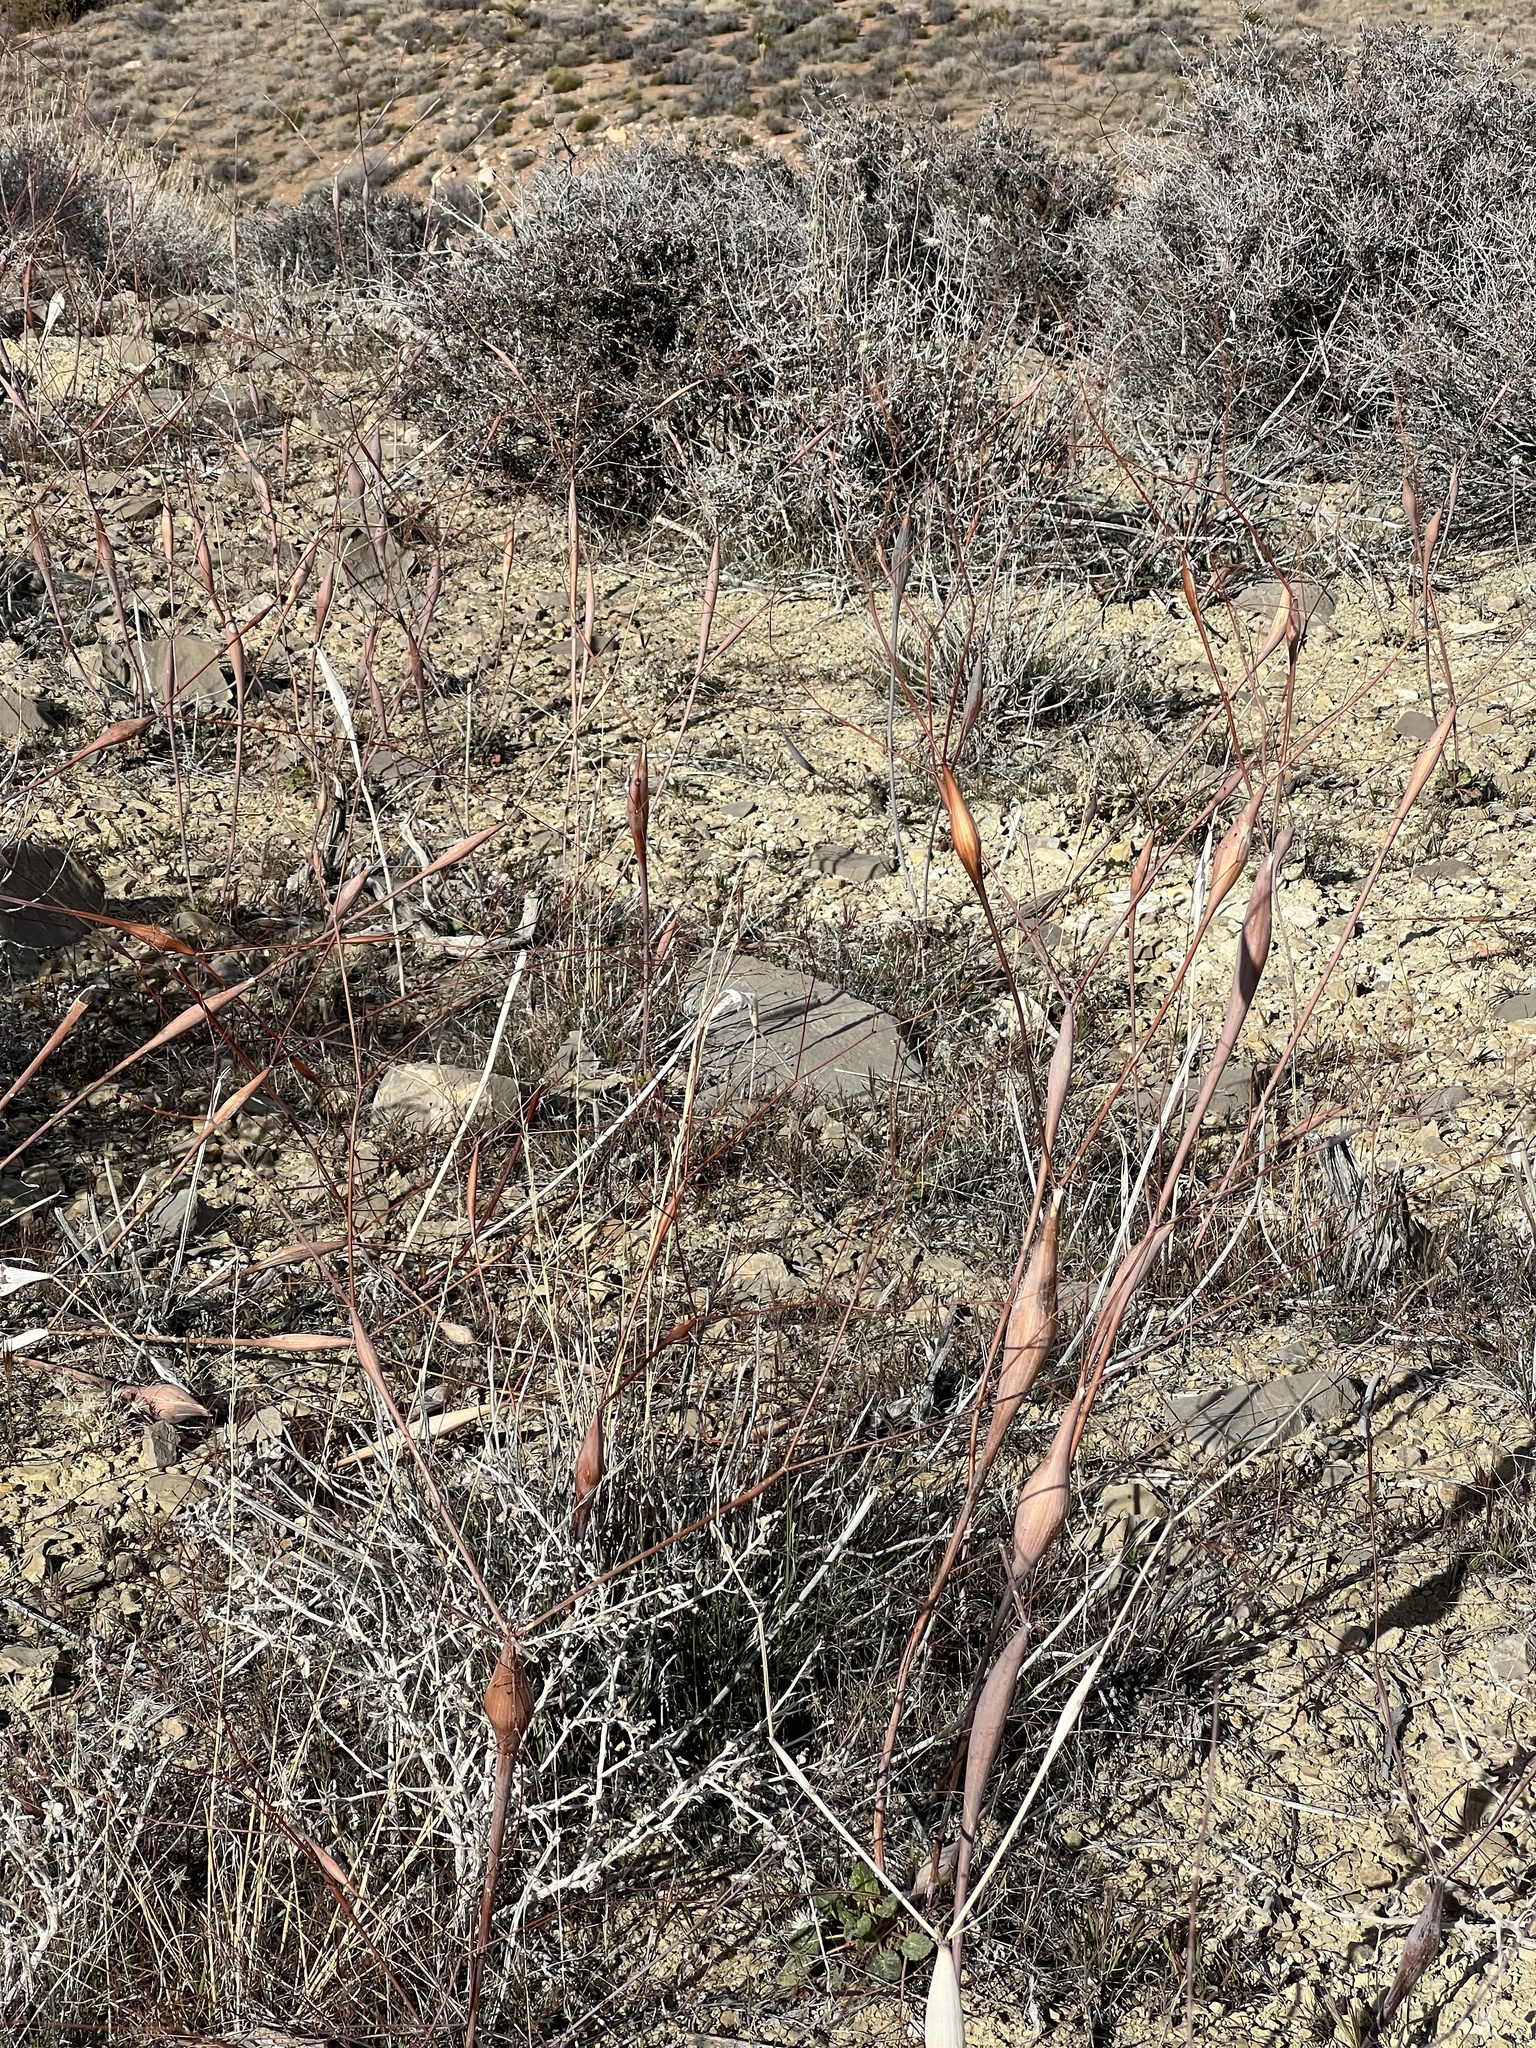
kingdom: Plantae
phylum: Tracheophyta
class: Magnoliopsida
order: Caryophyllales
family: Polygonaceae
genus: Eriogonum
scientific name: Eriogonum inflatum
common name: Desert trumpet
